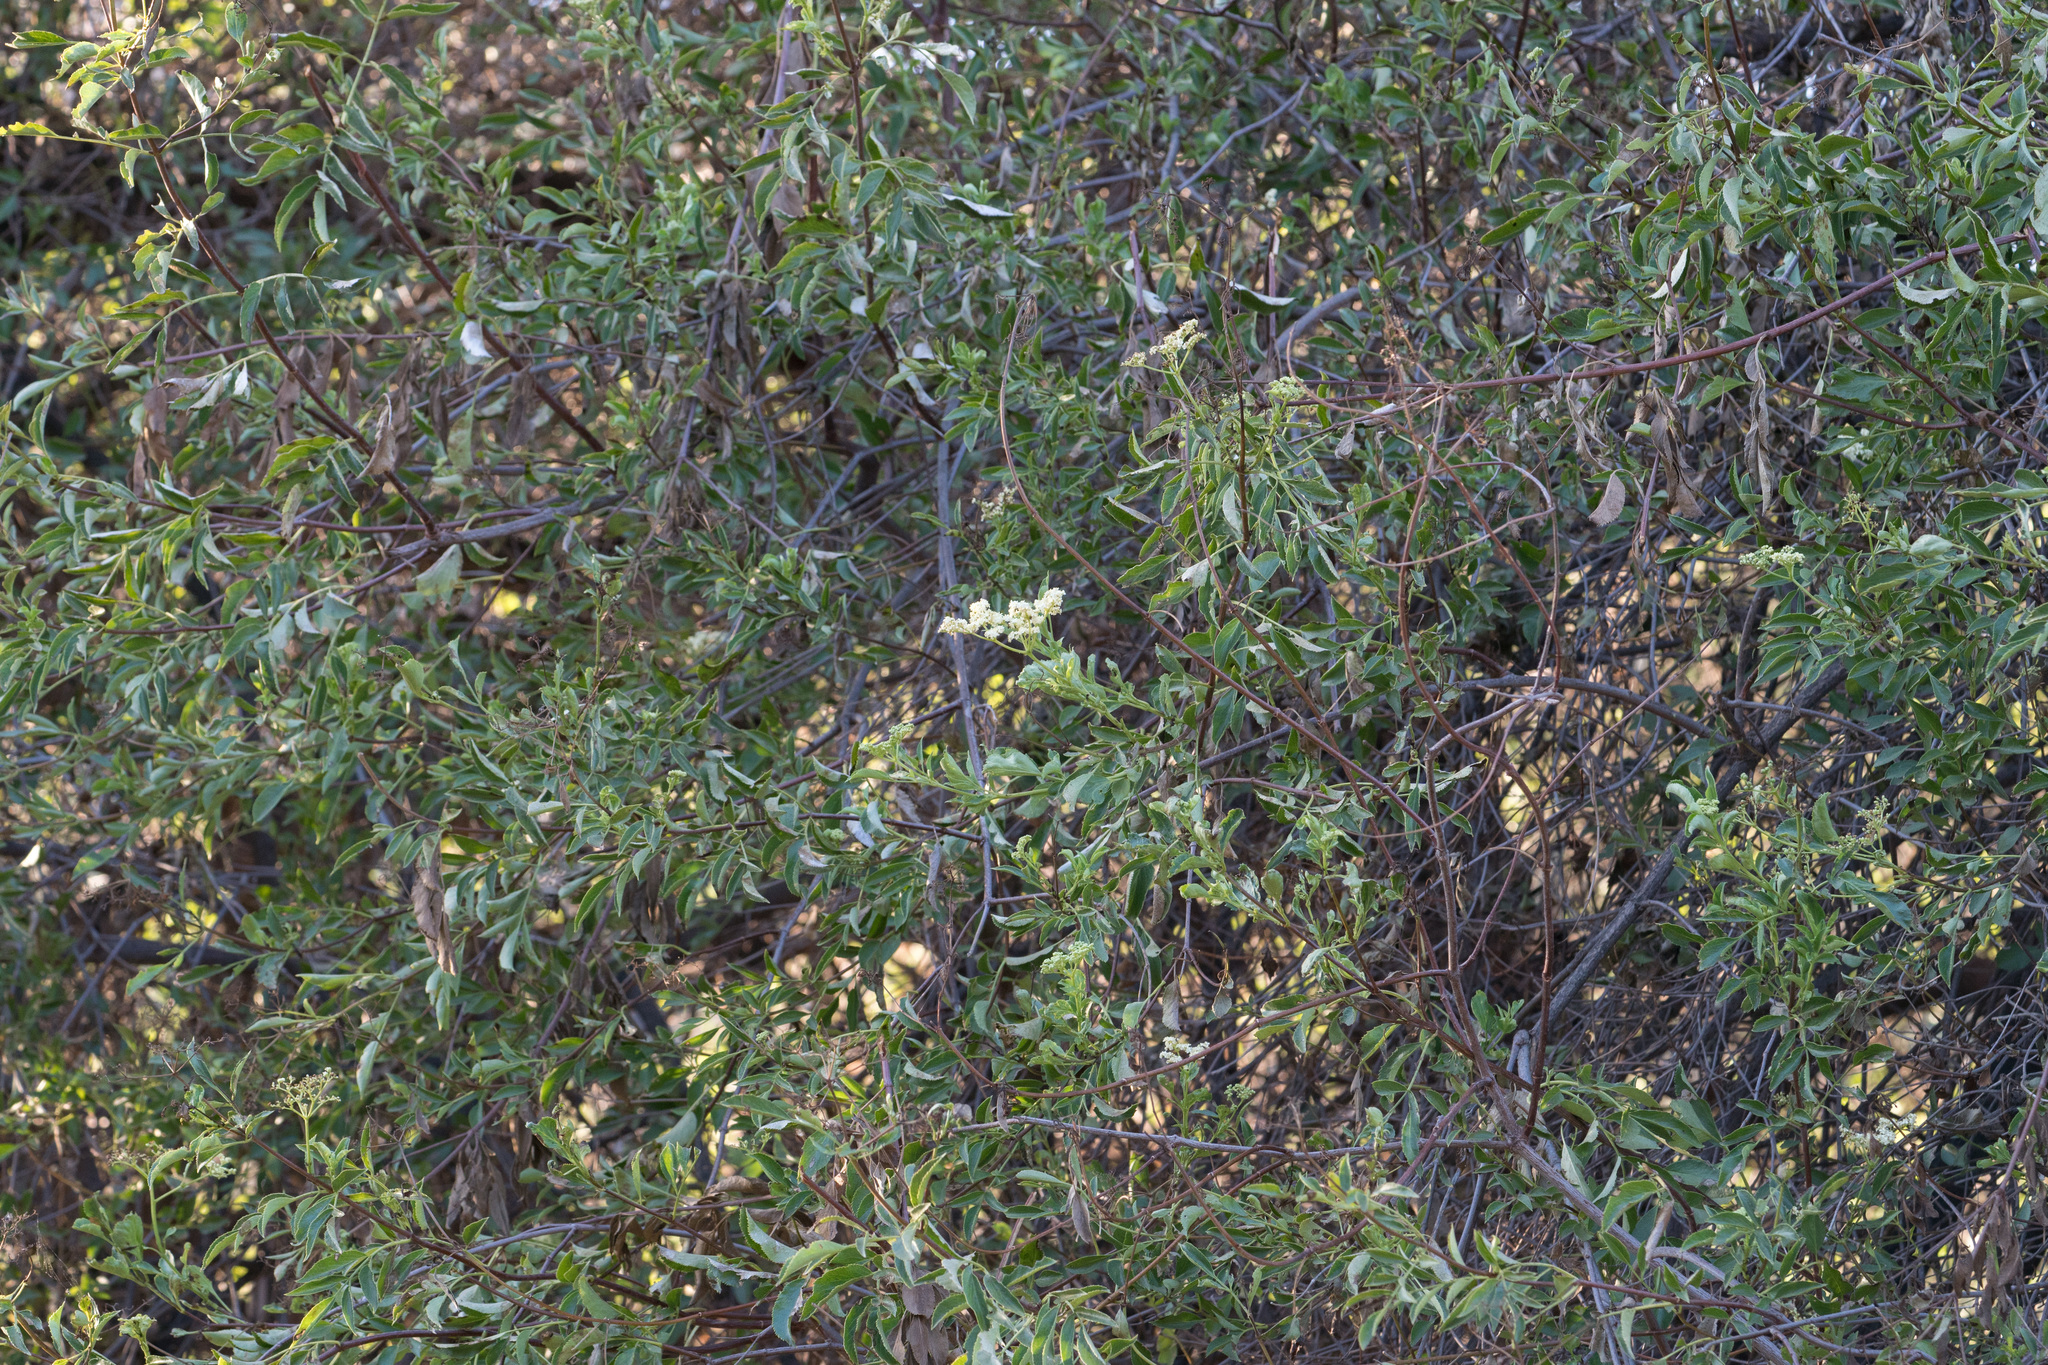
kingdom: Plantae
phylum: Tracheophyta
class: Magnoliopsida
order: Dipsacales
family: Viburnaceae
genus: Sambucus
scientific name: Sambucus cerulea
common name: Blue elder
